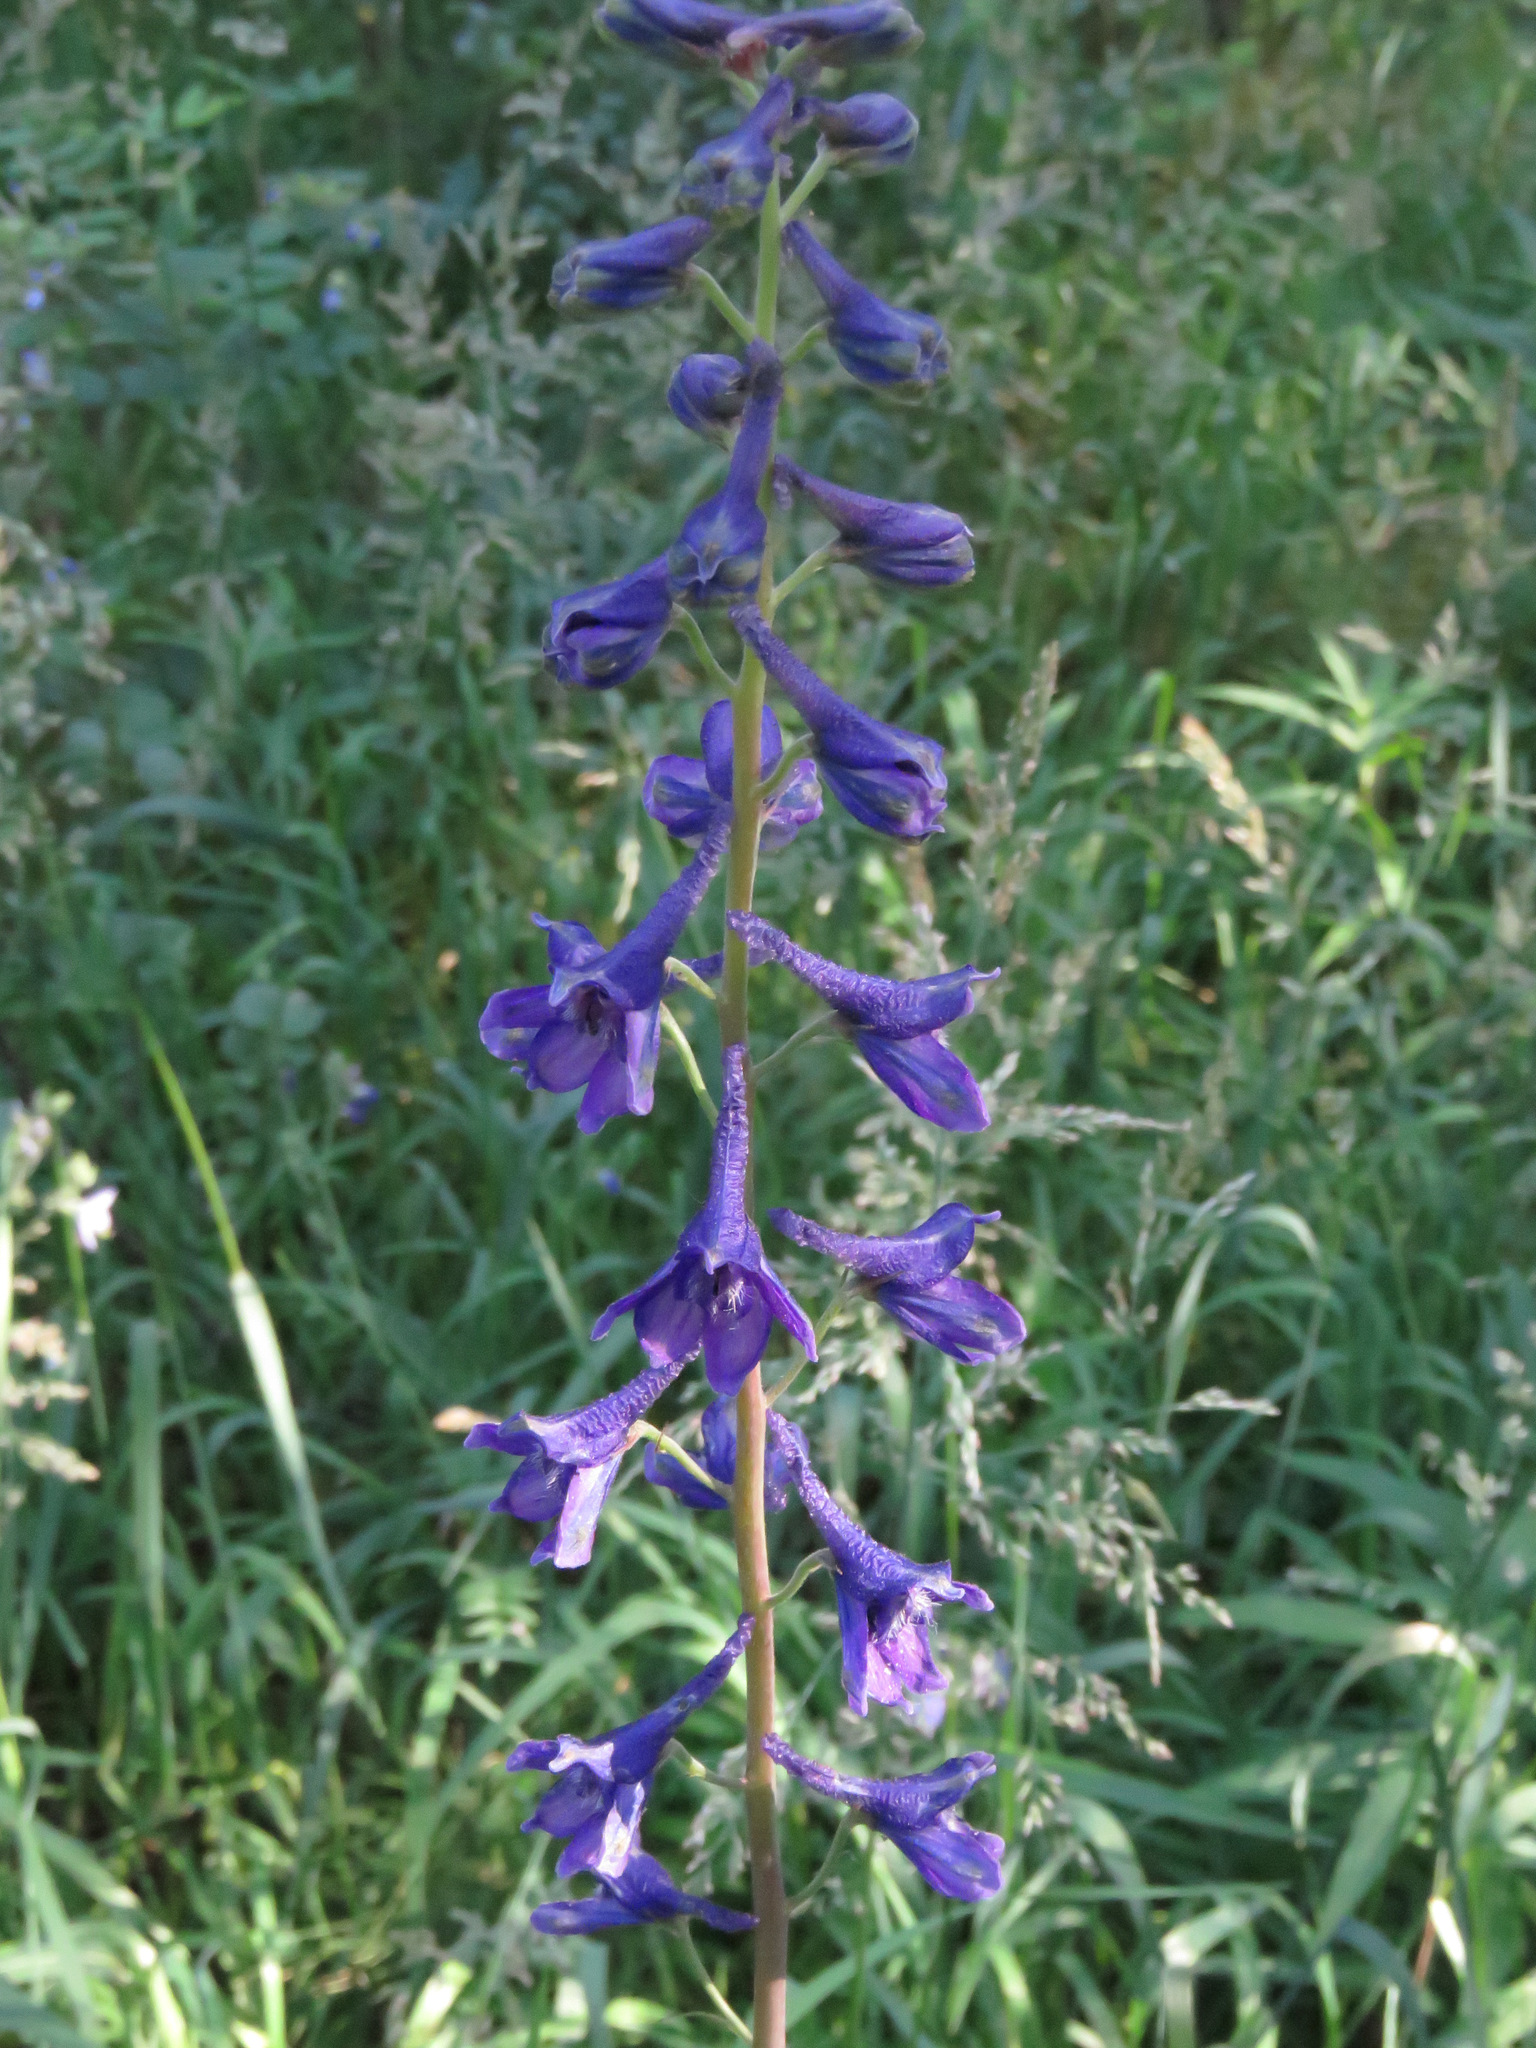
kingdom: Plantae
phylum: Tracheophyta
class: Magnoliopsida
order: Ranunculales
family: Ranunculaceae
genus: Delphinium
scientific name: Delphinium glaucum
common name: Brown's larkspur
